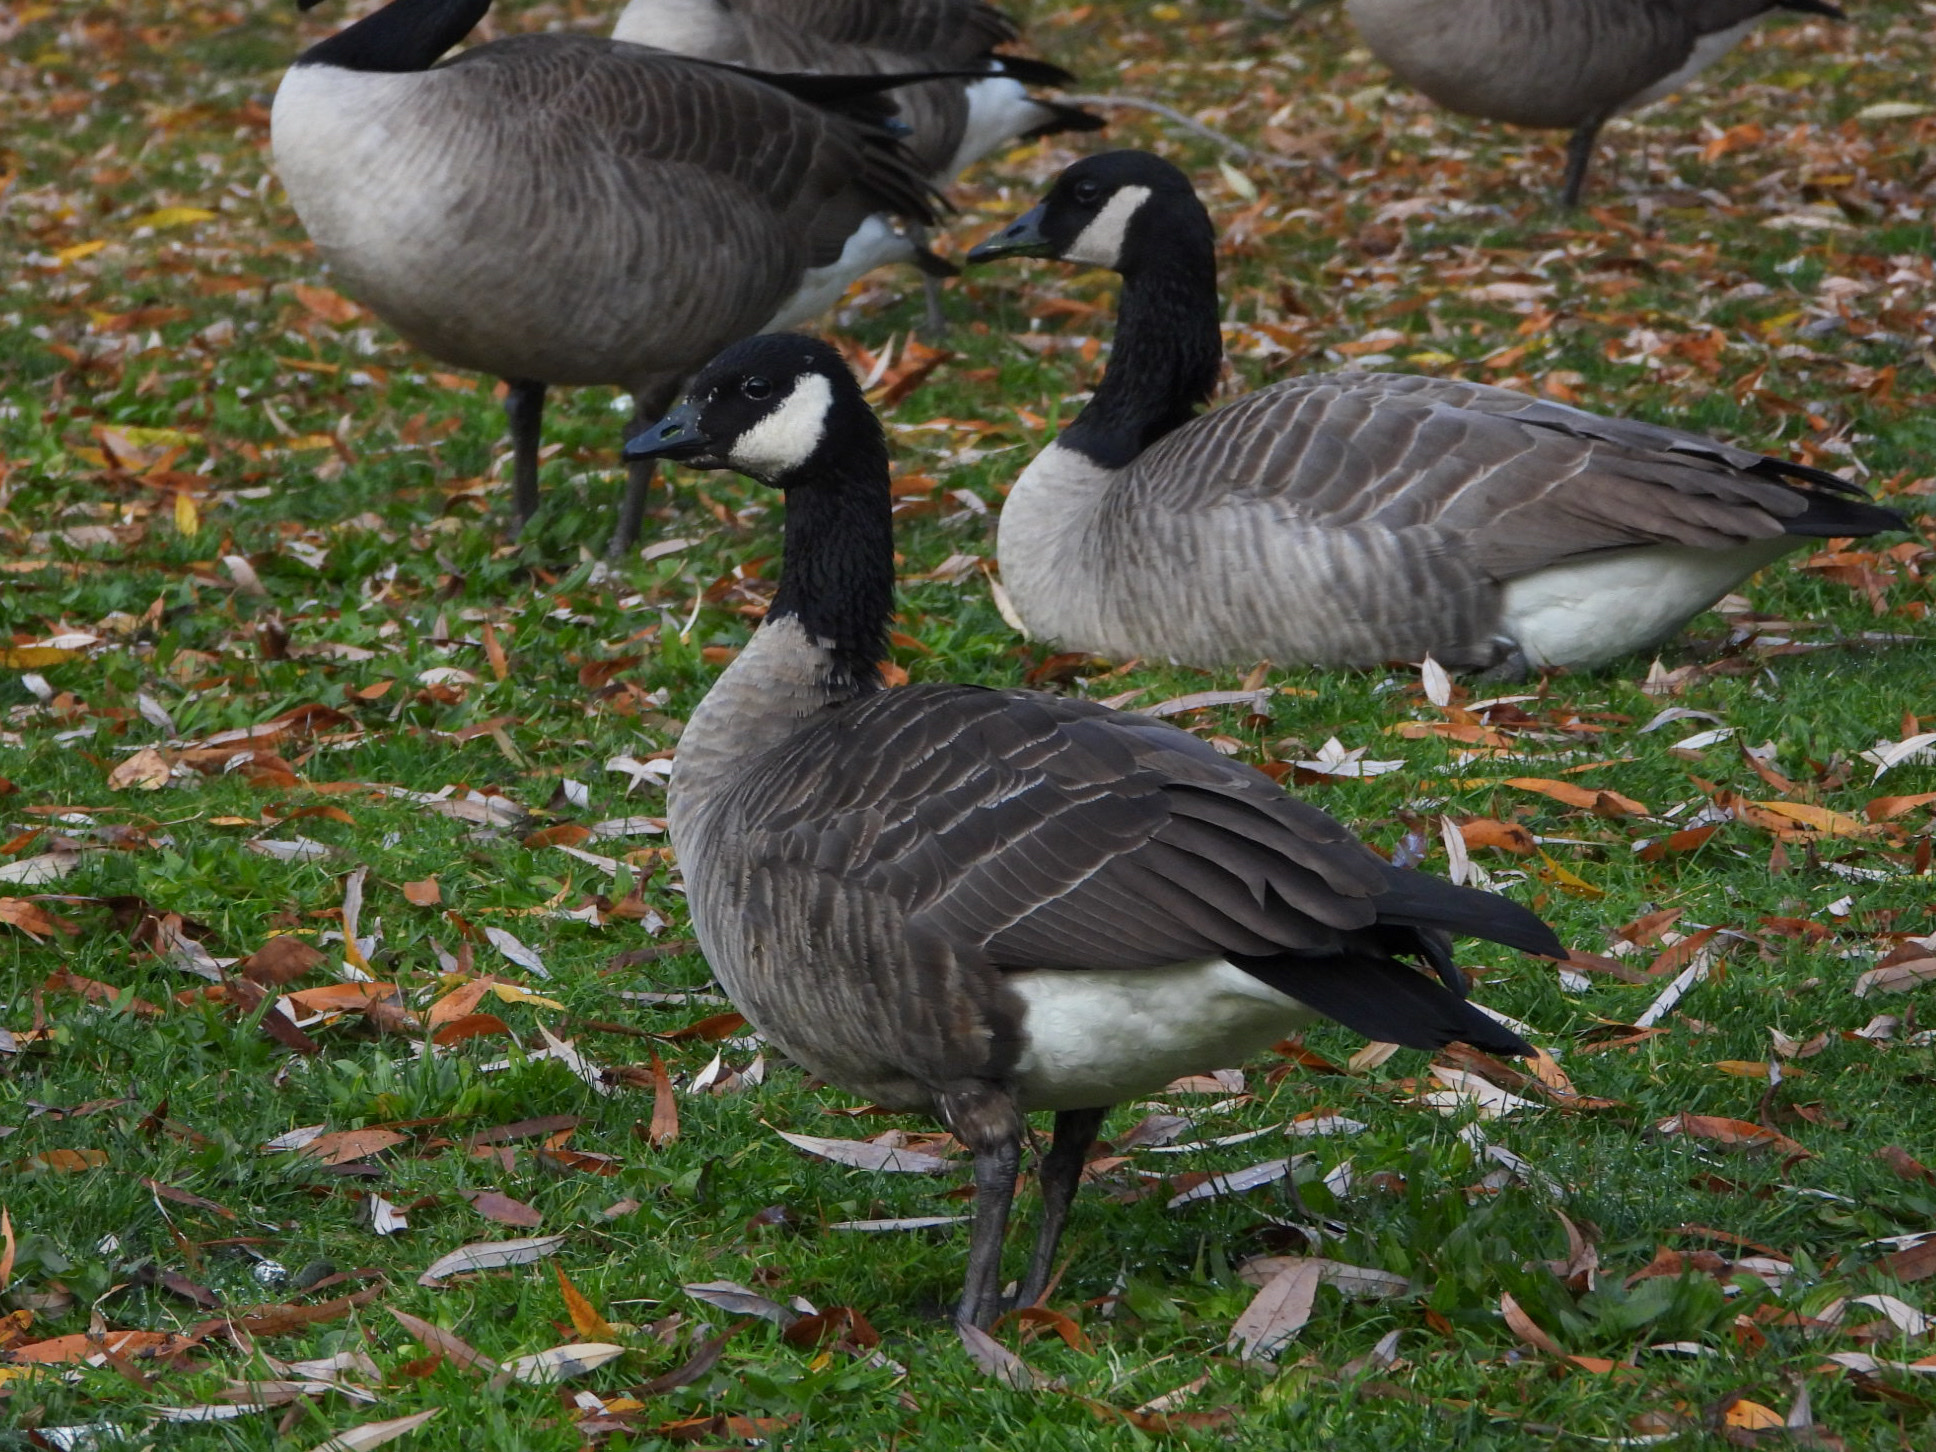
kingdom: Animalia
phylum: Chordata
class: Aves
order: Anseriformes
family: Anatidae
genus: Branta
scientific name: Branta hutchinsii
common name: Cackling goose
